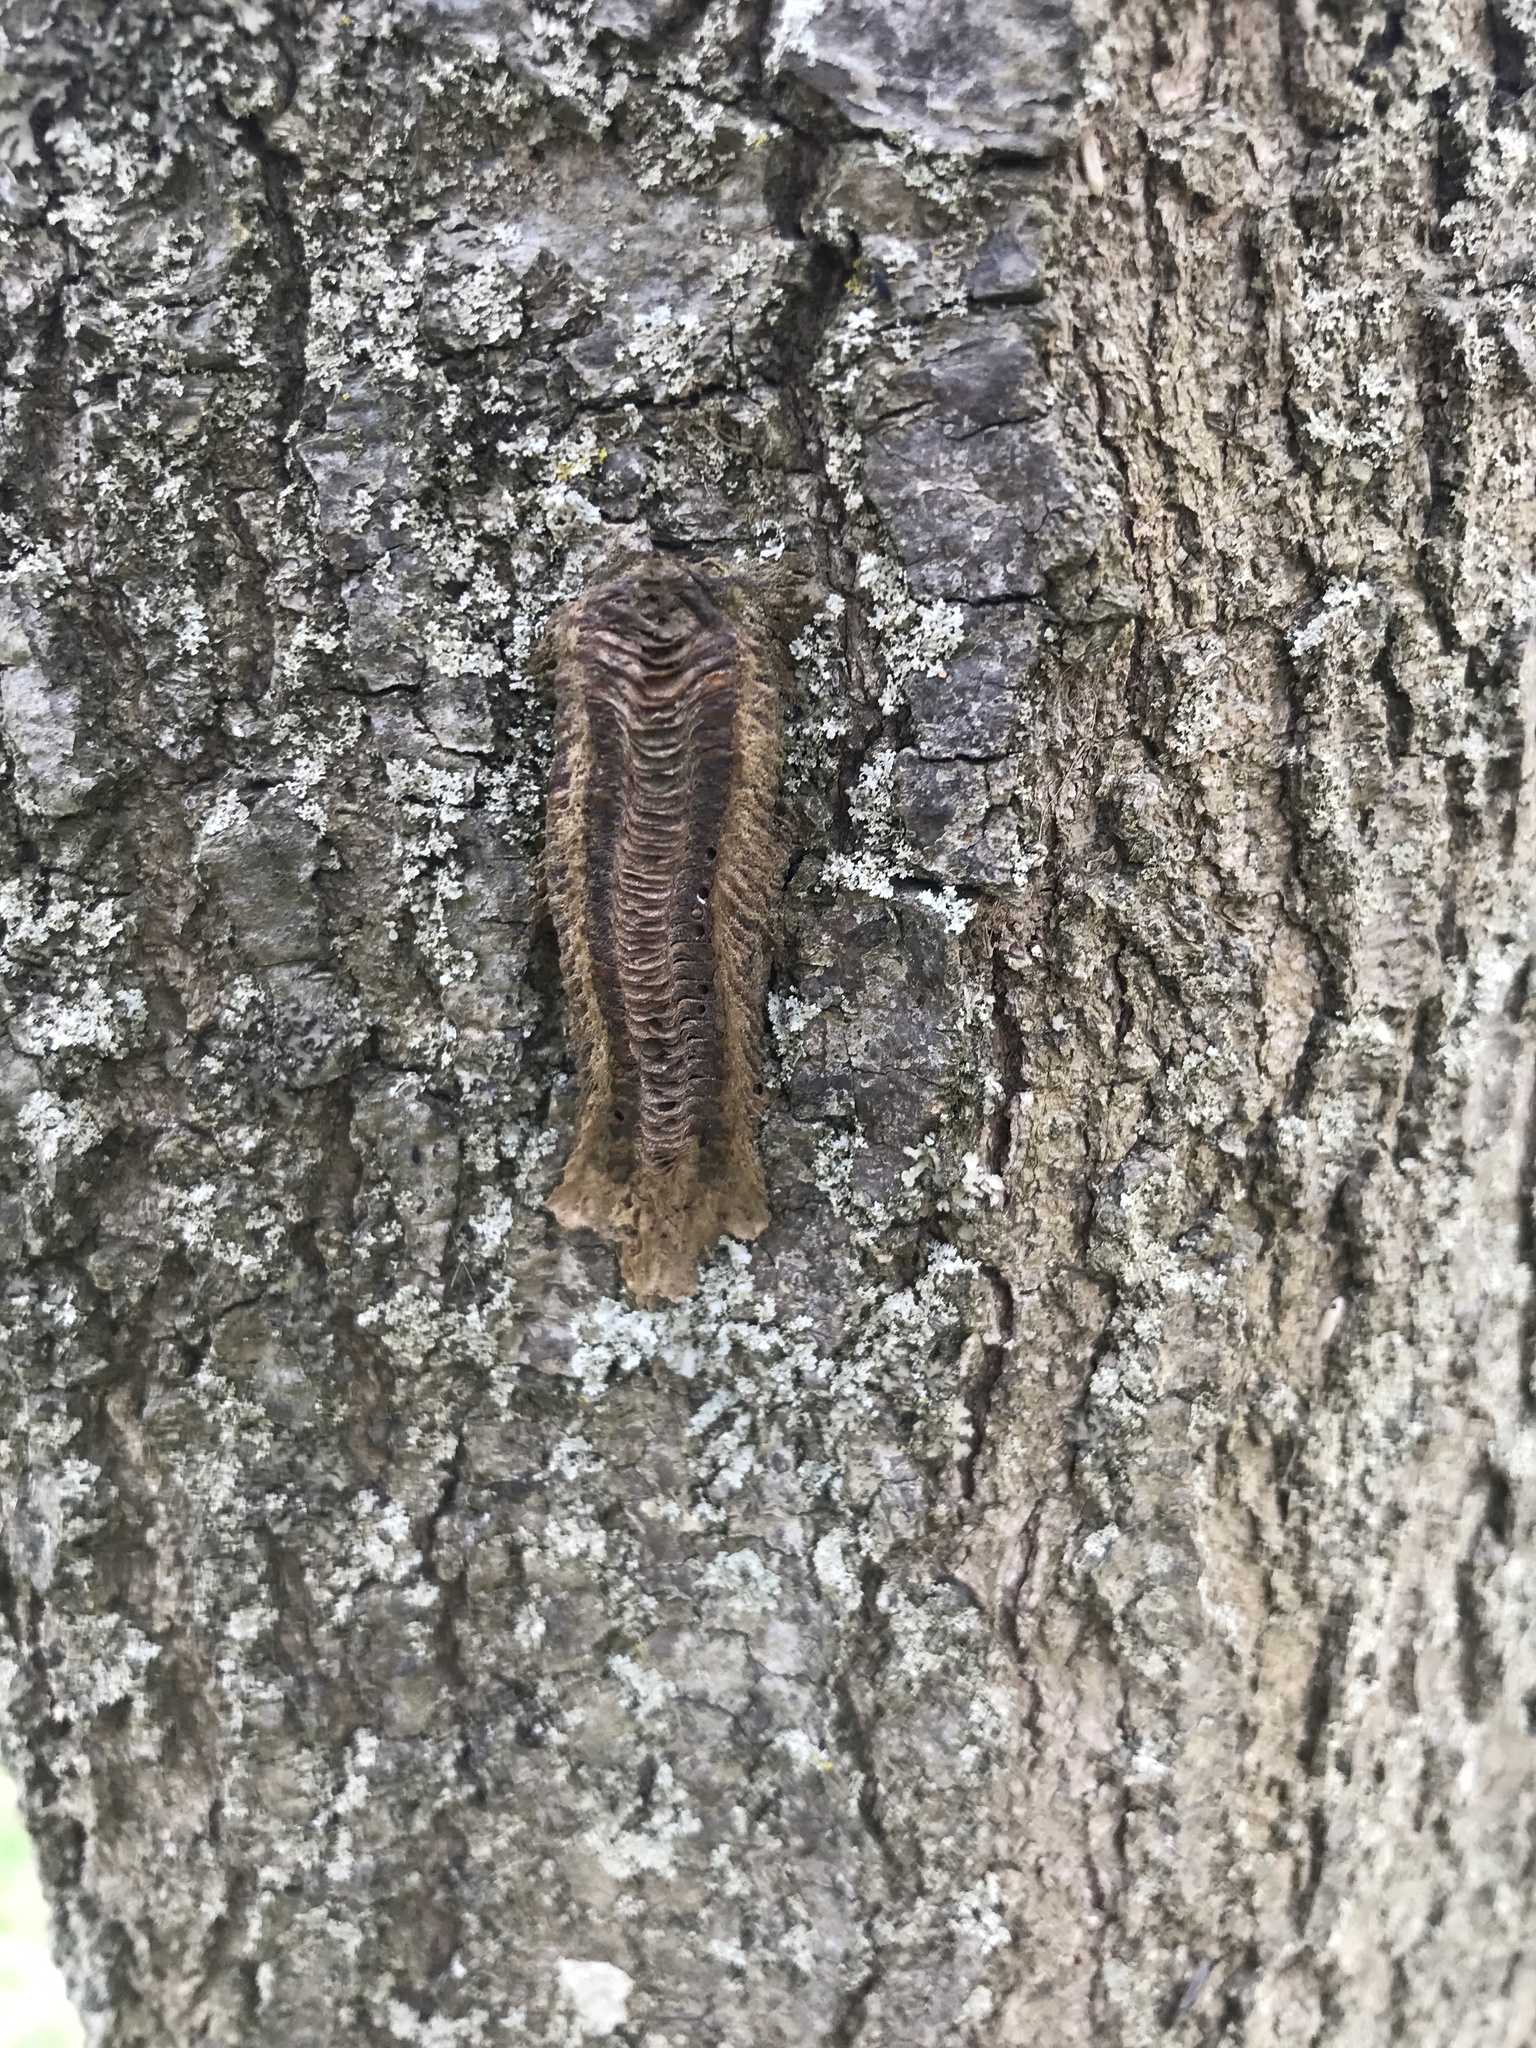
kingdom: Animalia
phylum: Arthropoda
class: Insecta
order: Mantodea
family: Mantidae
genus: Tenodera
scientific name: Tenodera angustipennis
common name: Asian mantis
